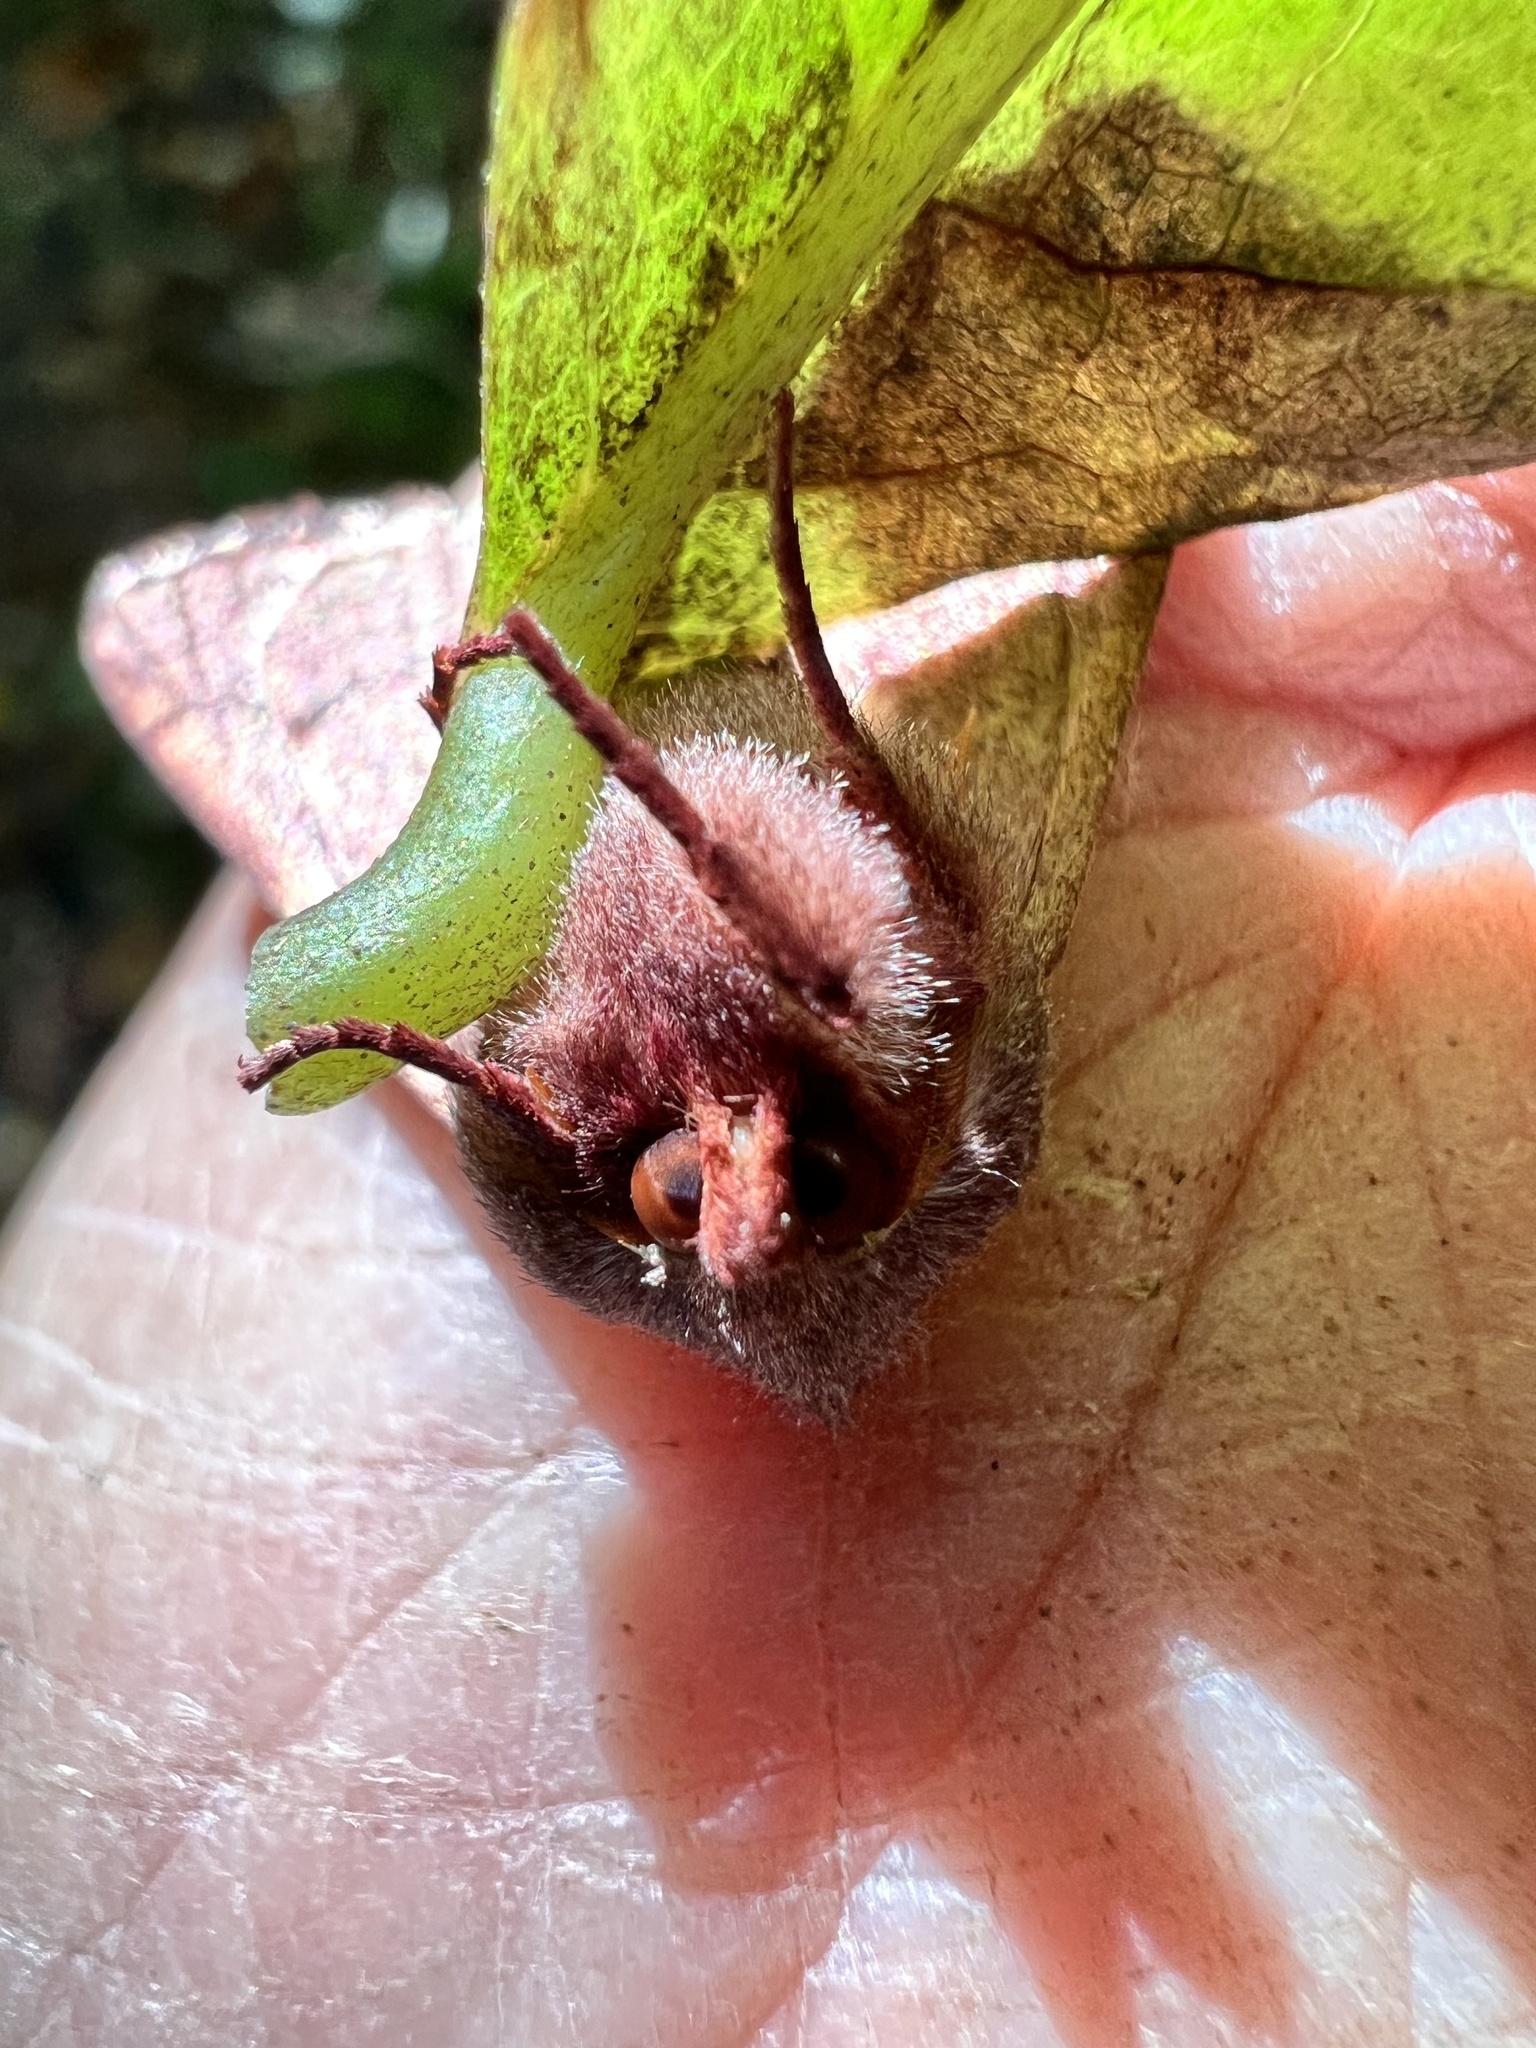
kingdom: Animalia
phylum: Arthropoda
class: Insecta
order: Lepidoptera
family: Noctuidae
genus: Choephora
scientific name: Choephora fungorum
